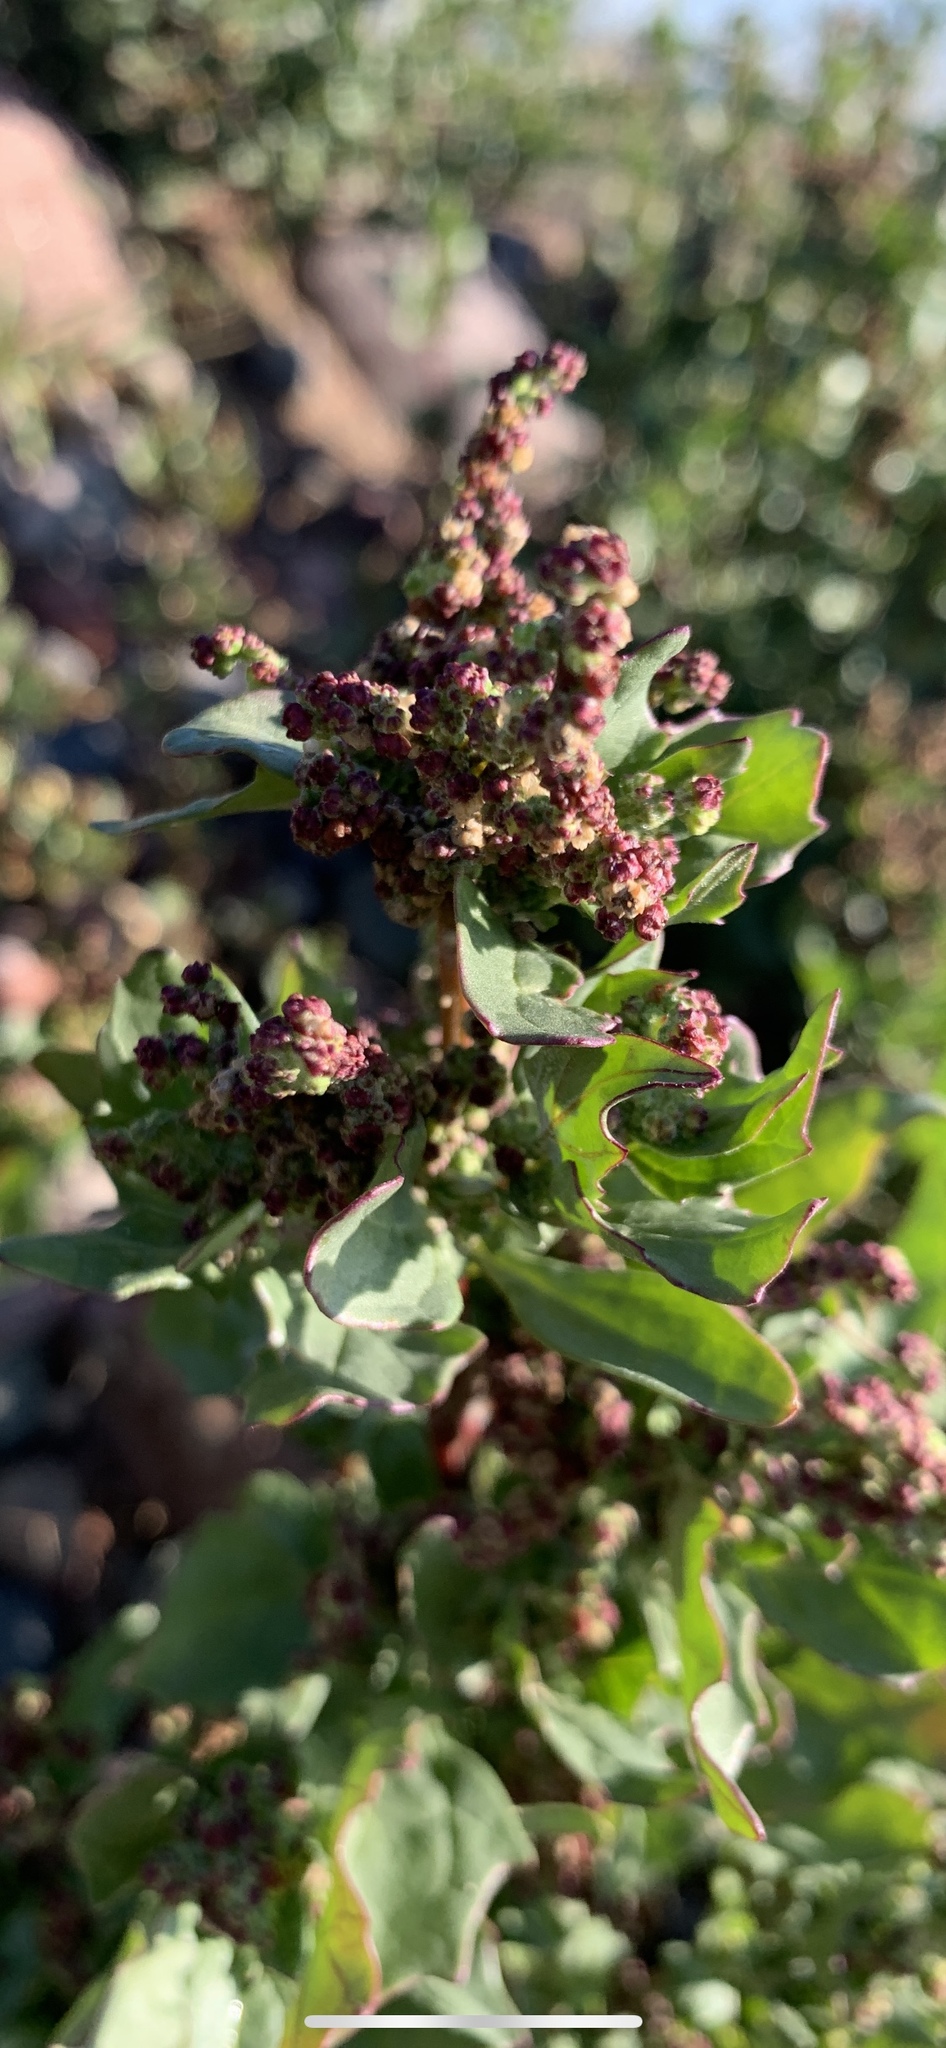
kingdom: Plantae
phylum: Tracheophyta
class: Magnoliopsida
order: Caryophyllales
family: Amaranthaceae
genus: Chenopodiastrum
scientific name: Chenopodiastrum murale
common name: Sowbane
